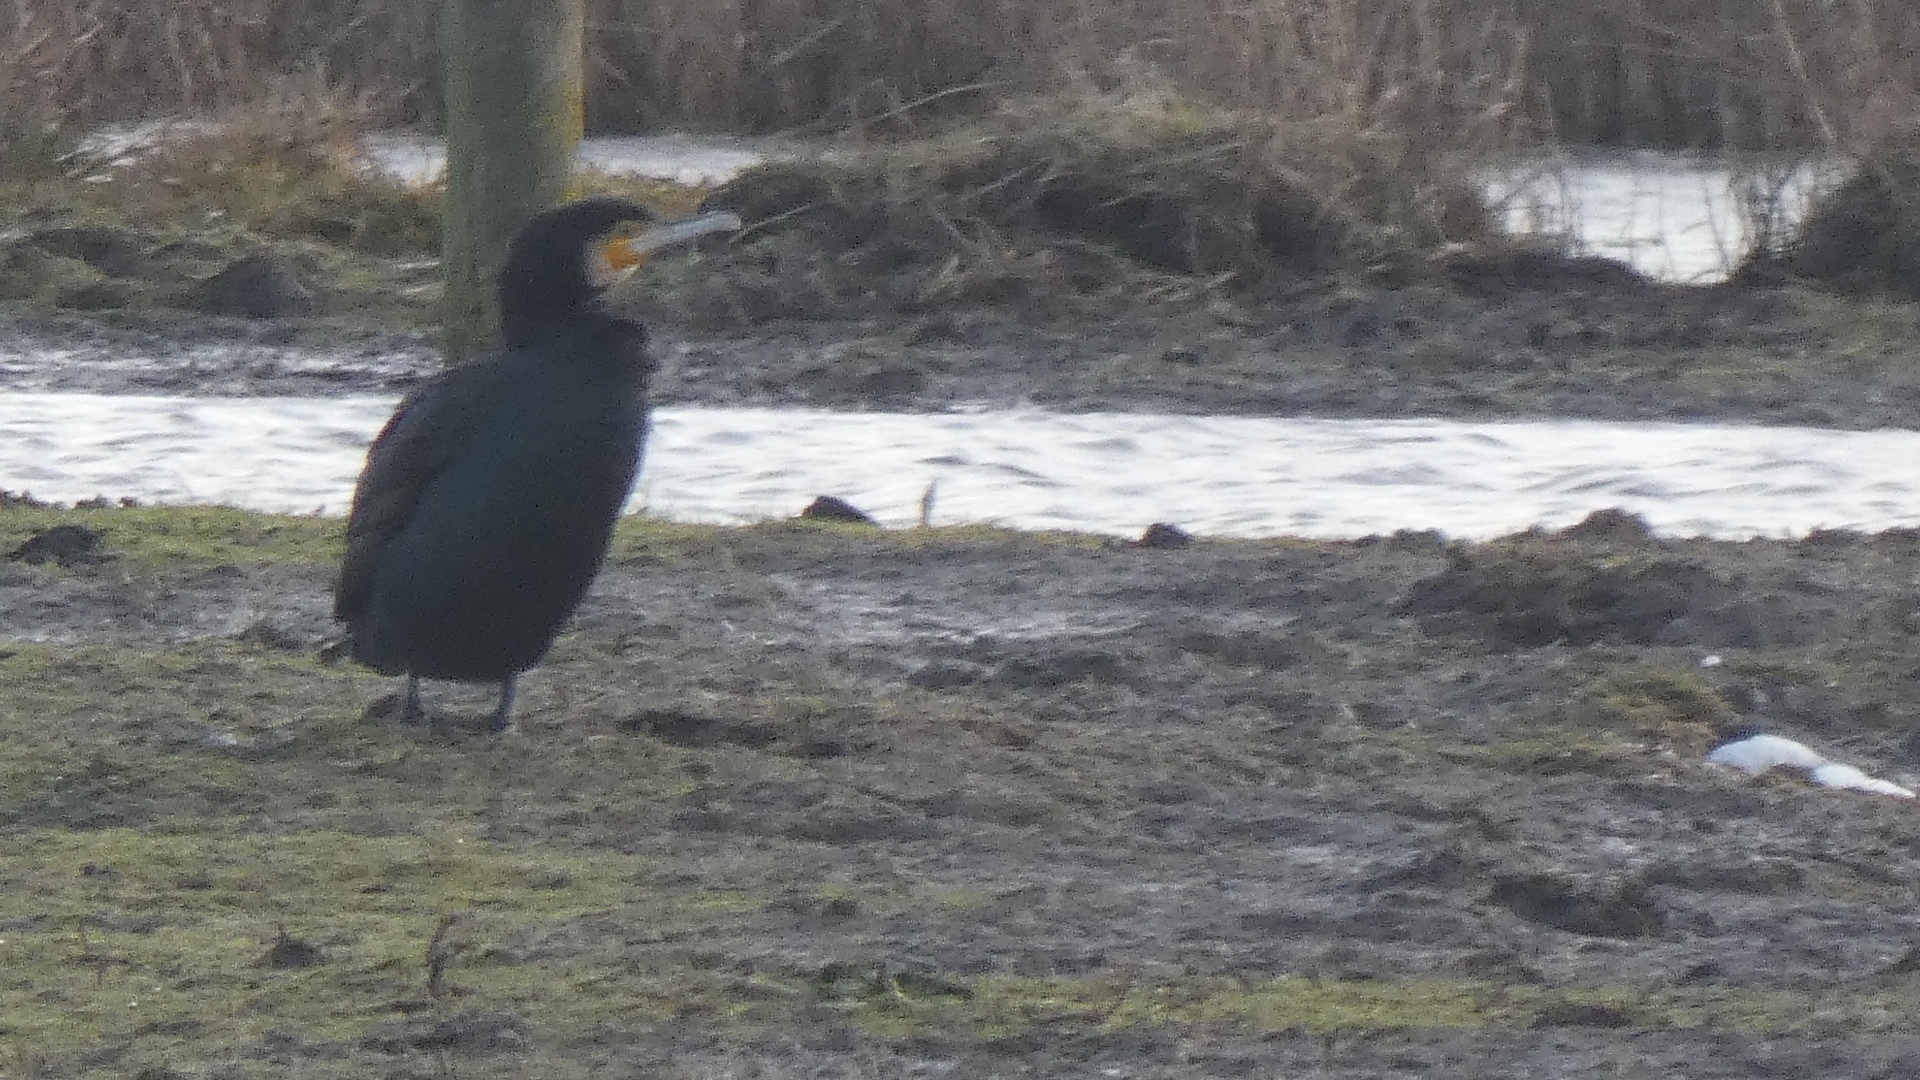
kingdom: Animalia
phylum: Chordata
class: Aves
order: Suliformes
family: Phalacrocoracidae
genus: Phalacrocorax
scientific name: Phalacrocorax carbo
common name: Great cormorant
